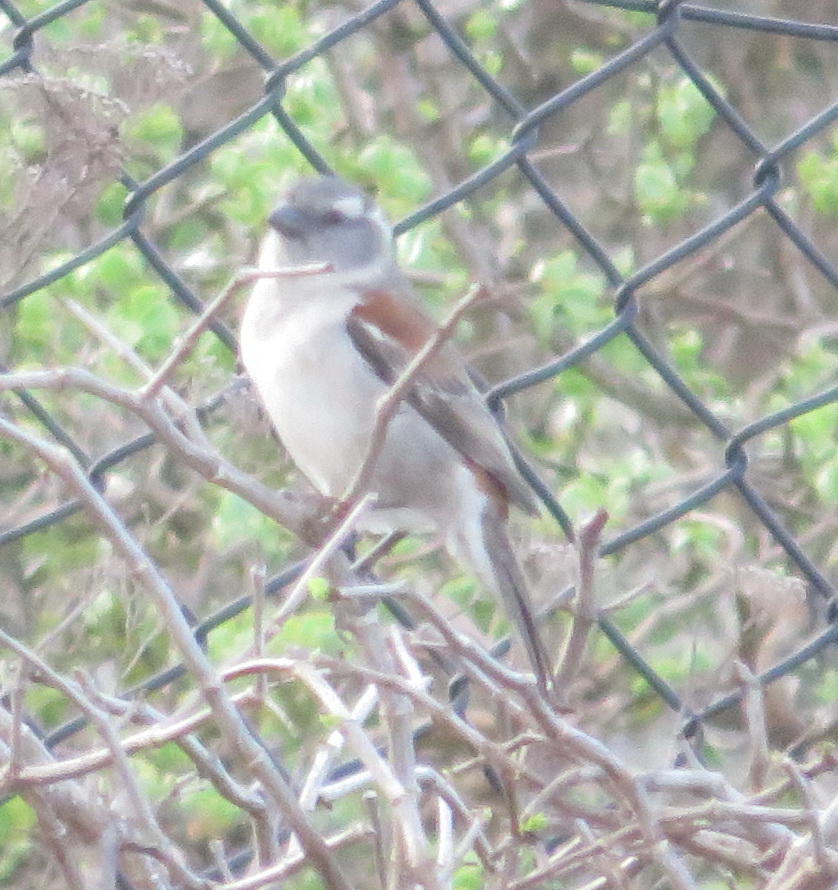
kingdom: Animalia
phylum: Chordata
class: Aves
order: Passeriformes
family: Passeridae
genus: Passer
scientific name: Passer melanurus
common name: Cape sparrow
